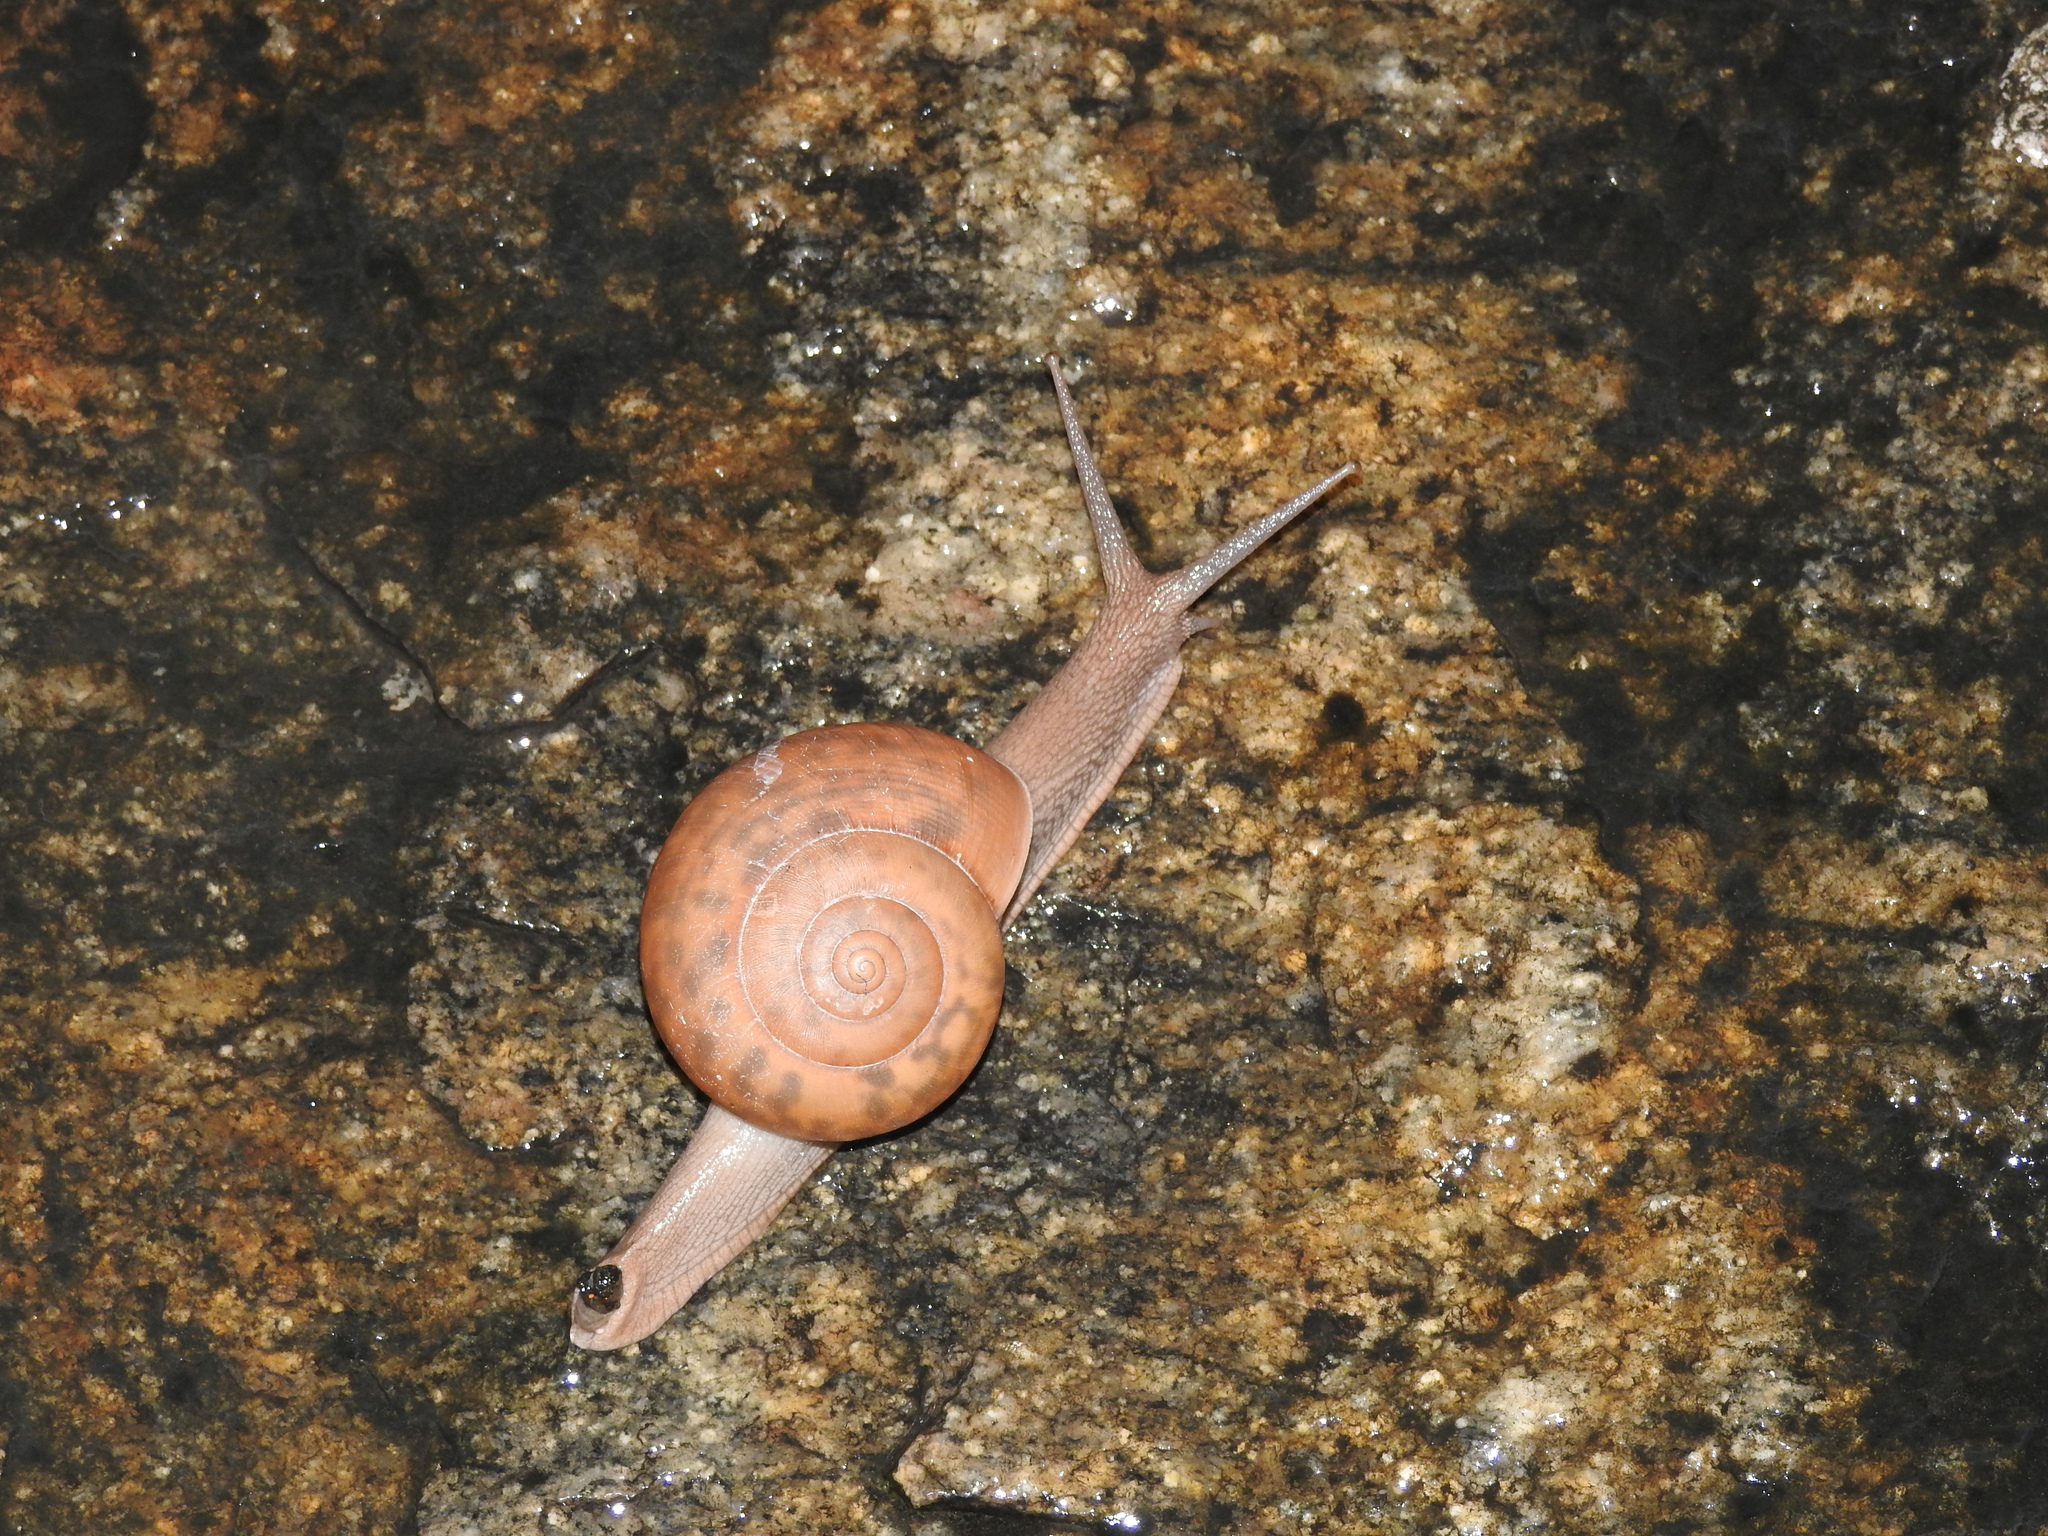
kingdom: Animalia
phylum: Mollusca
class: Gastropoda
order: Stylommatophora
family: Ariophantidae
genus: Ariophanta
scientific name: Ariophanta maderaspatana
